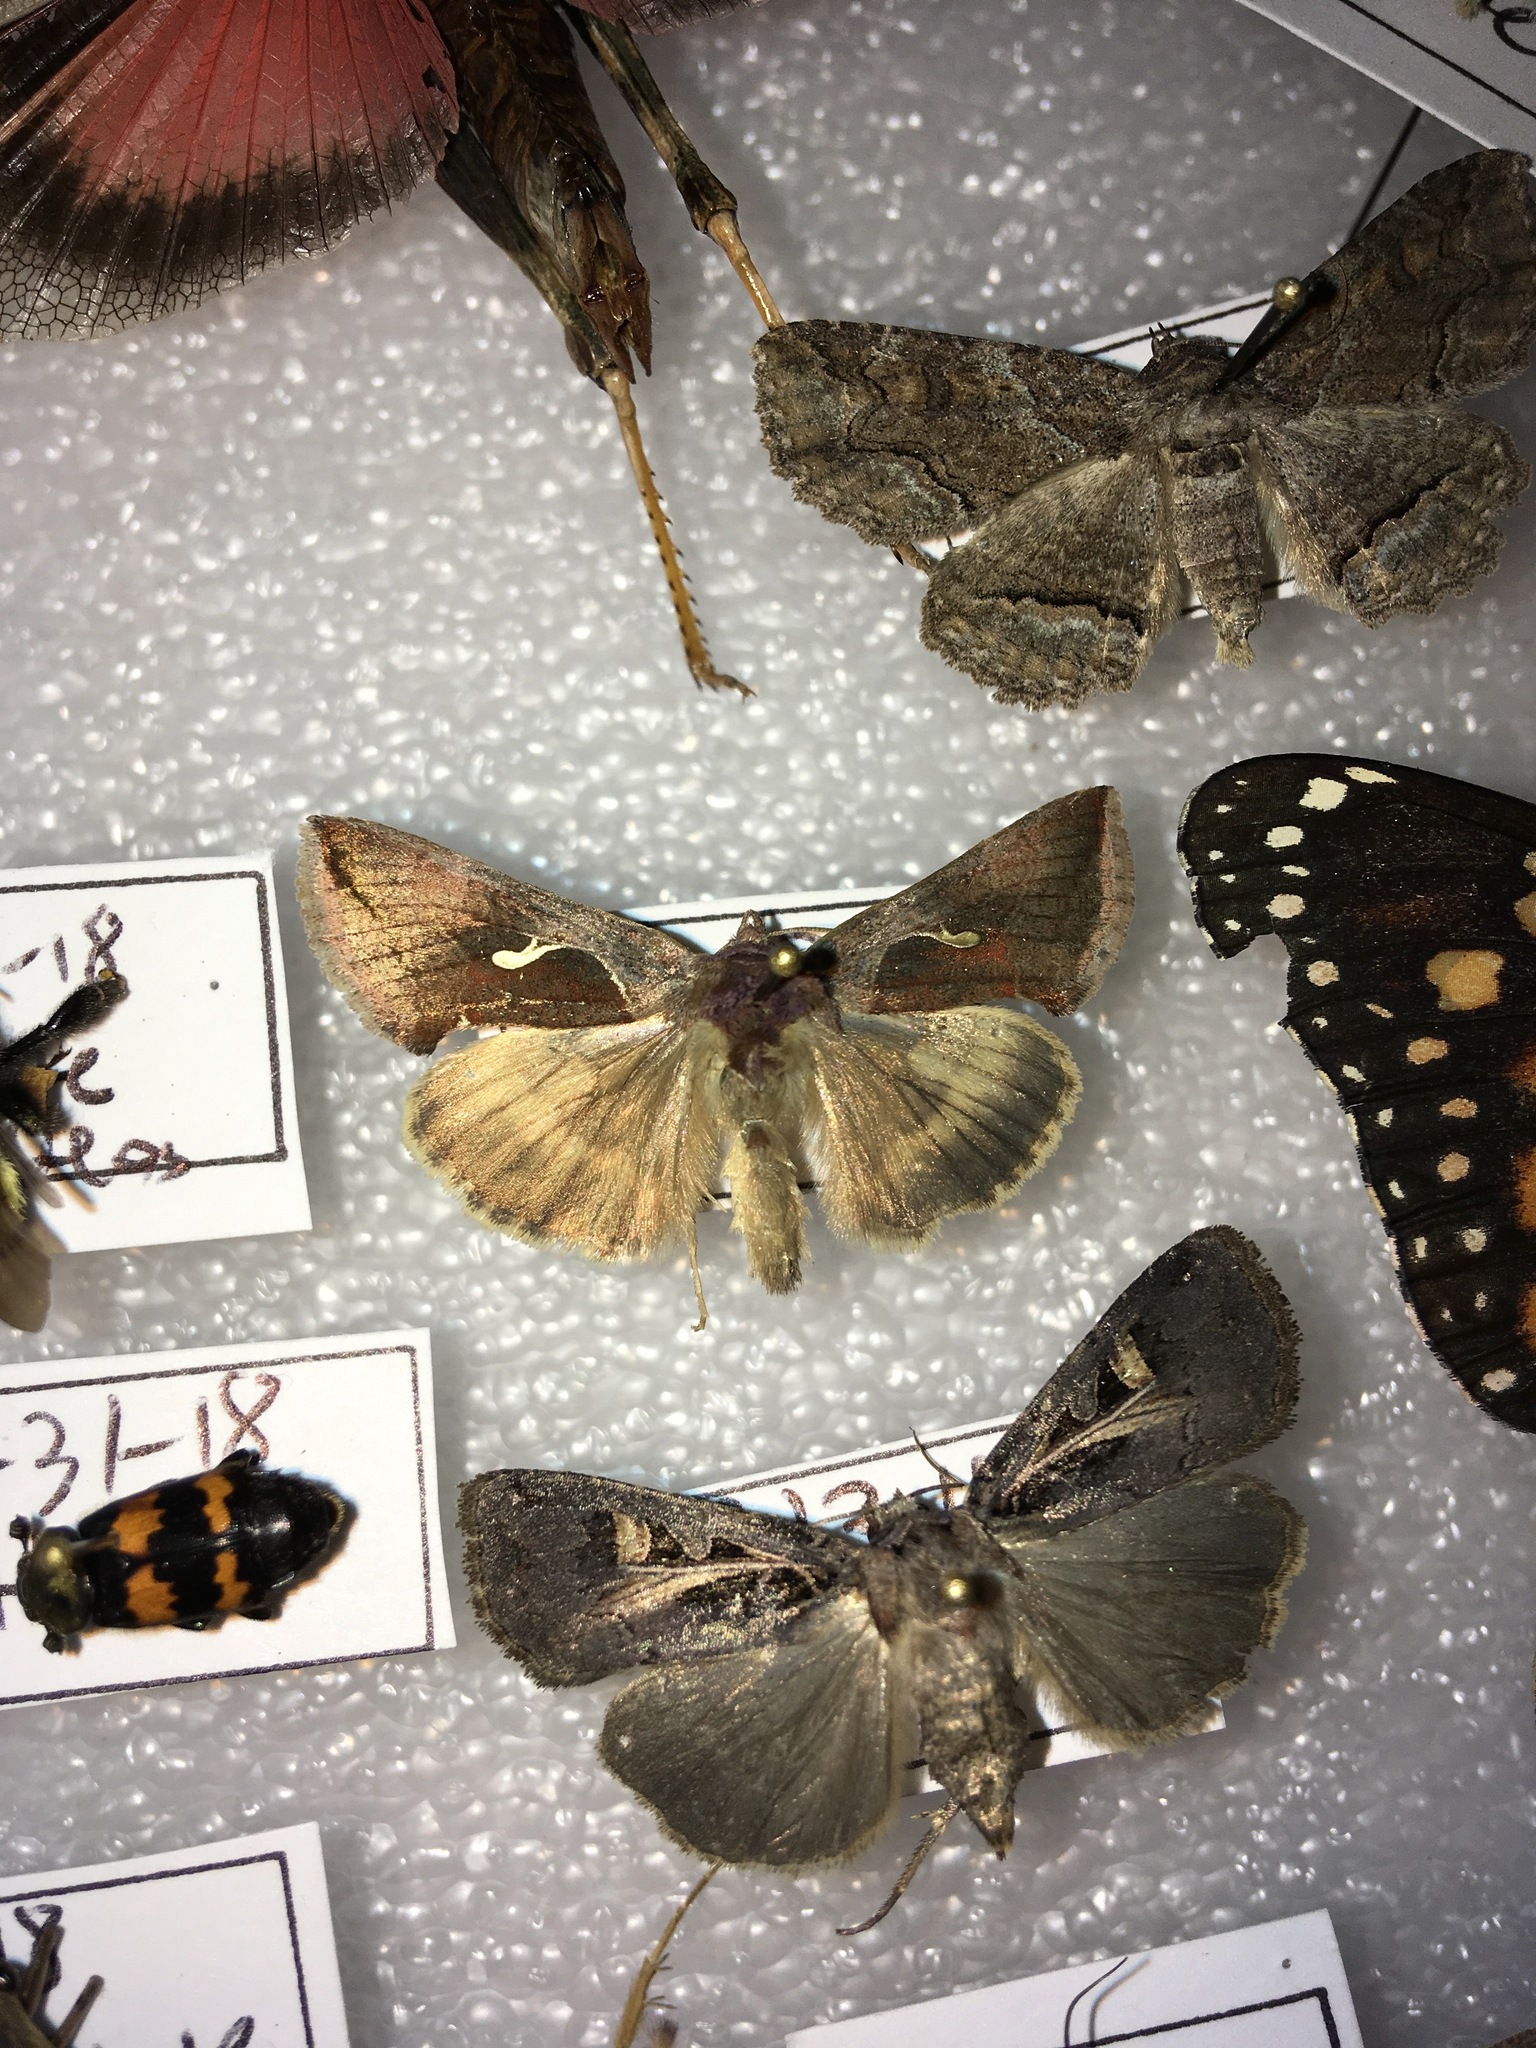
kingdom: Animalia
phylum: Arthropoda
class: Insecta
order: Lepidoptera
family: Noctuidae
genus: Anagrapha
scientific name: Anagrapha falcifera
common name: Celery looper
